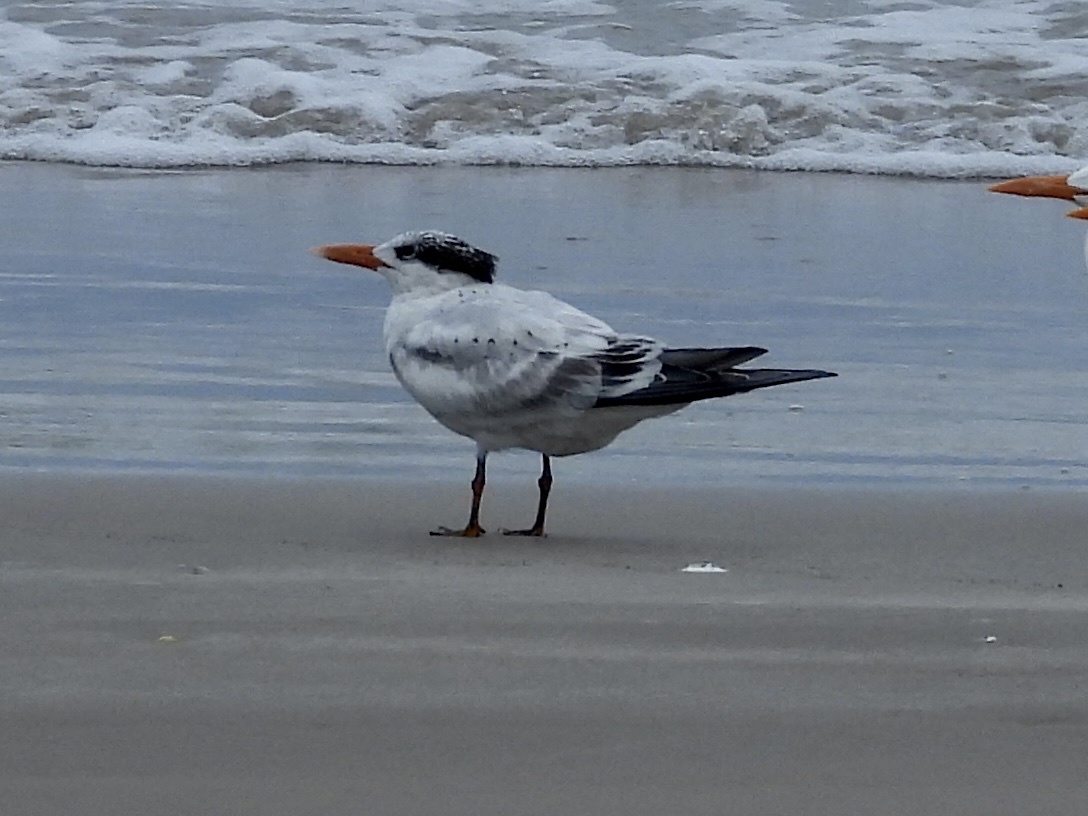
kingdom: Animalia
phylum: Chordata
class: Aves
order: Charadriiformes
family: Laridae
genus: Thalasseus
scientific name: Thalasseus maximus
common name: Royal tern
